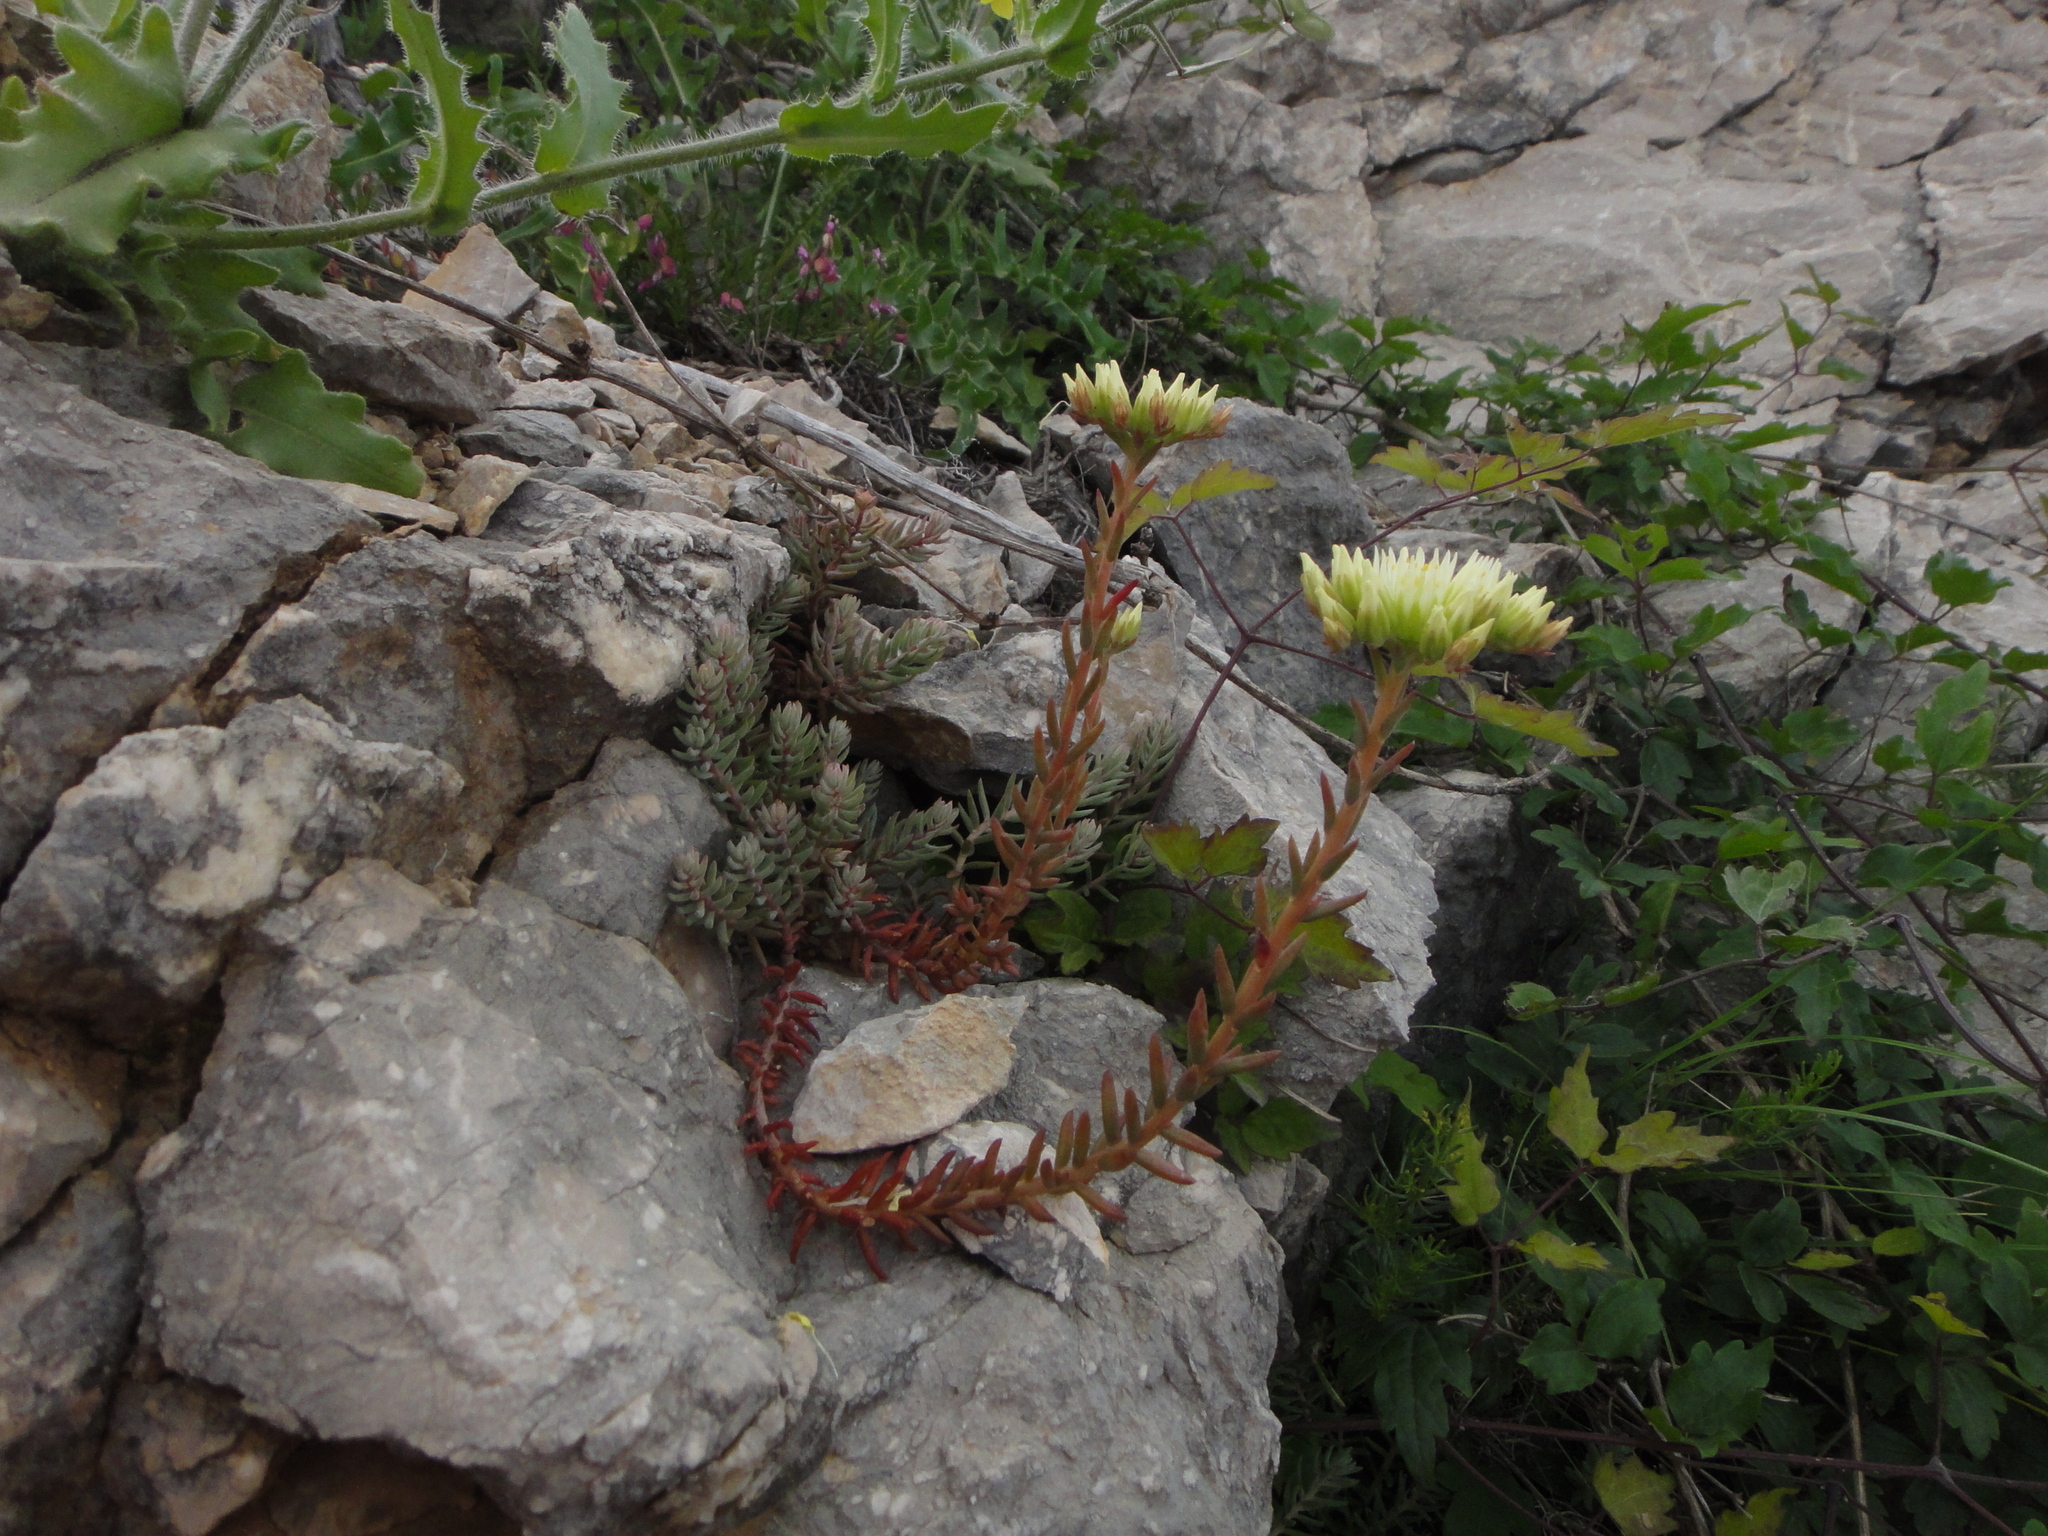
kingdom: Plantae
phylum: Tracheophyta
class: Magnoliopsida
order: Saxifragales
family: Crassulaceae
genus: Petrosedum
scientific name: Petrosedum ochroleucum
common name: European stonecrop
